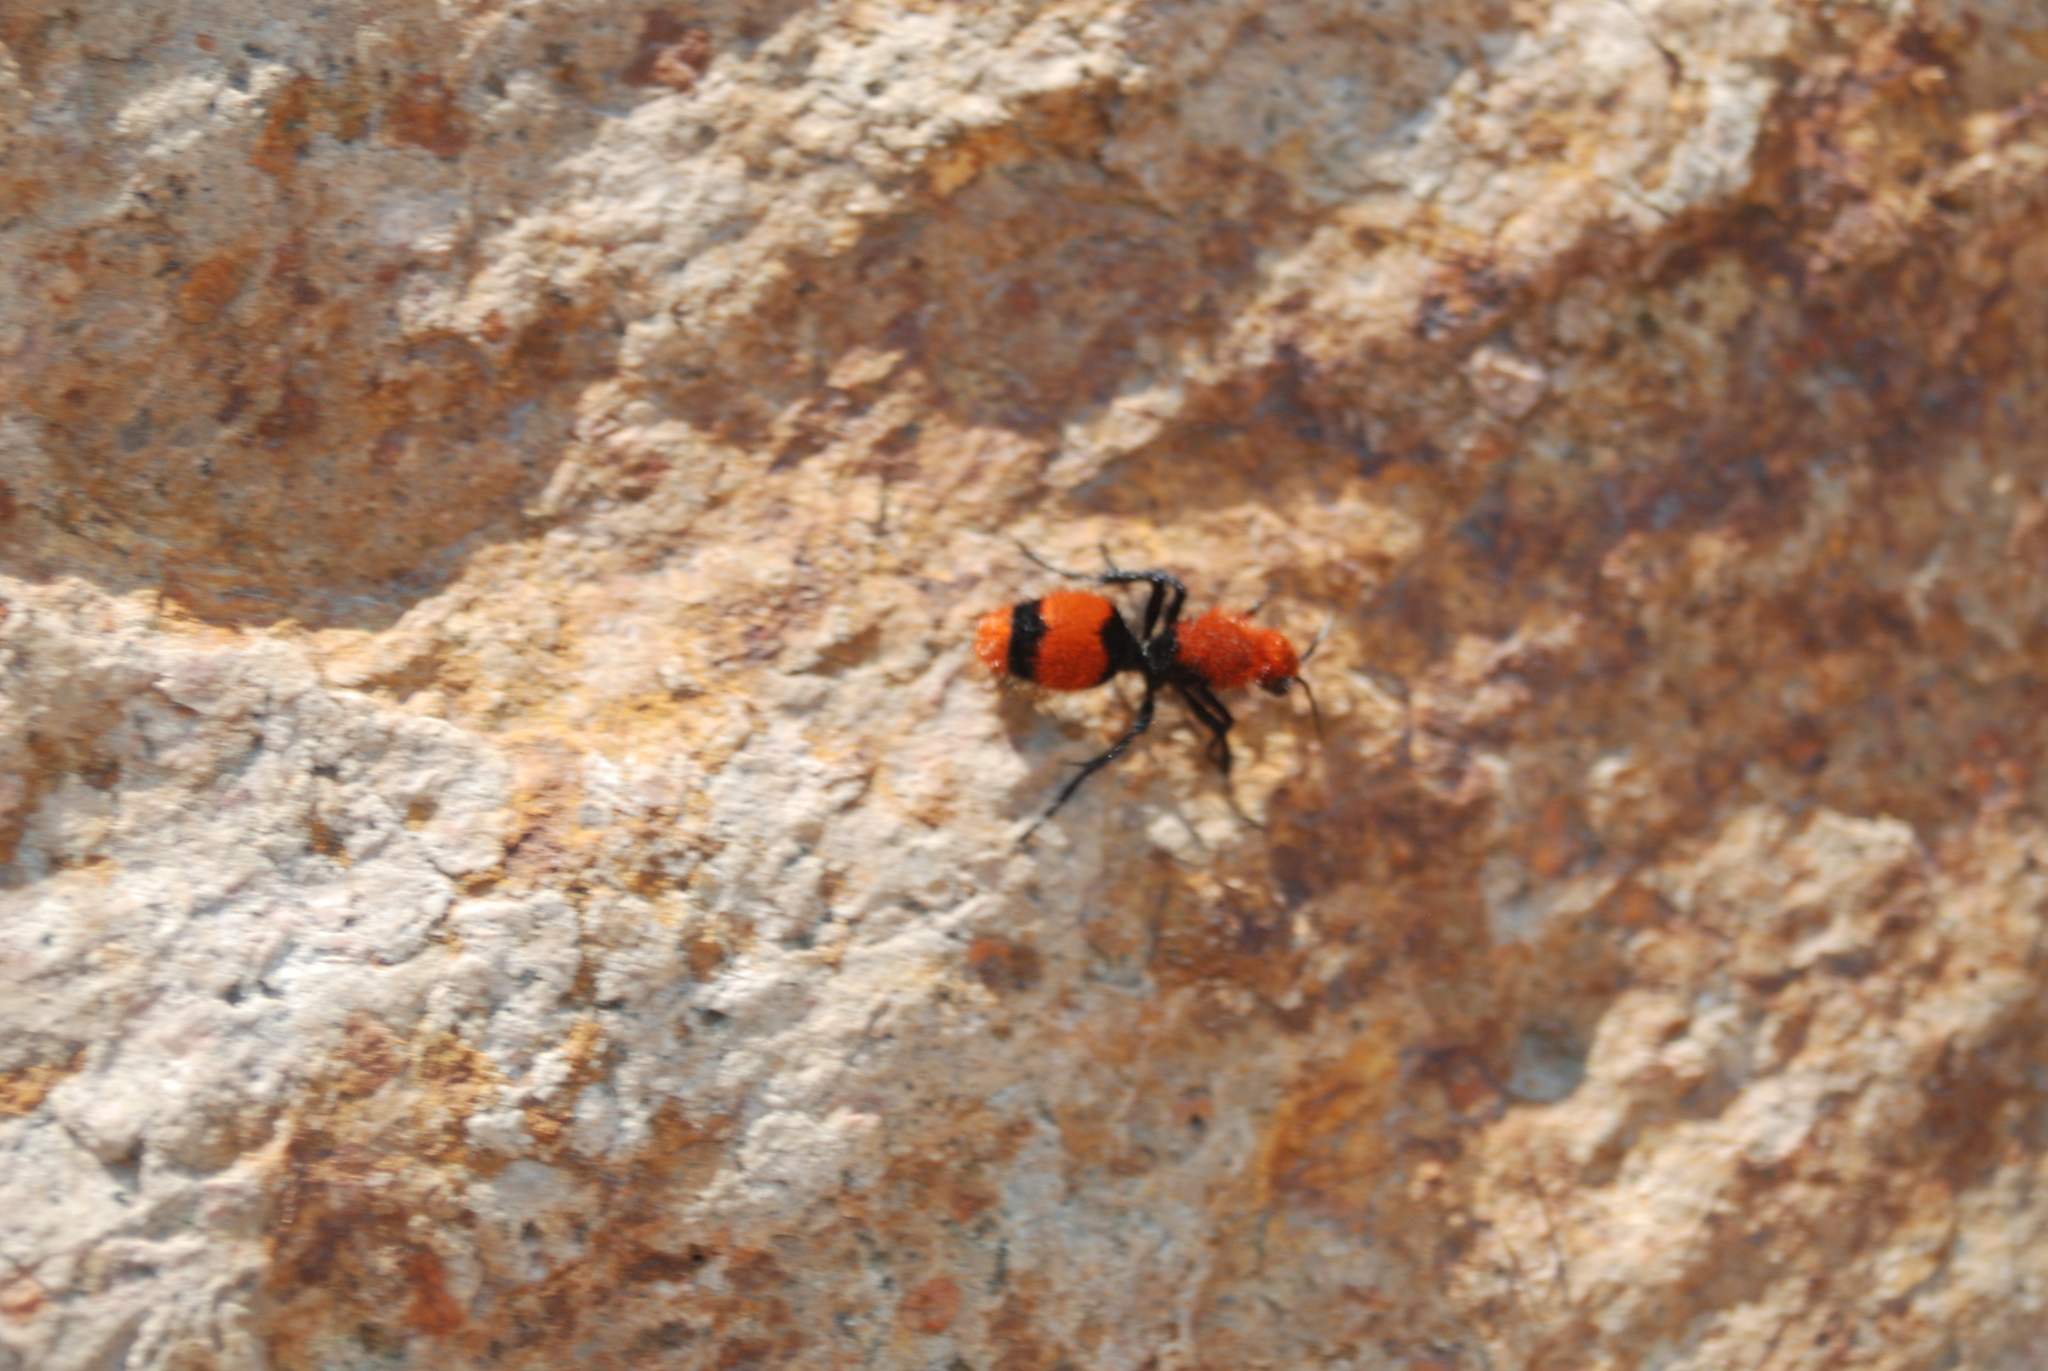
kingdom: Animalia
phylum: Arthropoda
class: Insecta
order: Hymenoptera
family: Mutillidae
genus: Dasymutilla
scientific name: Dasymutilla occidentalis
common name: Common eastern velvet ant
